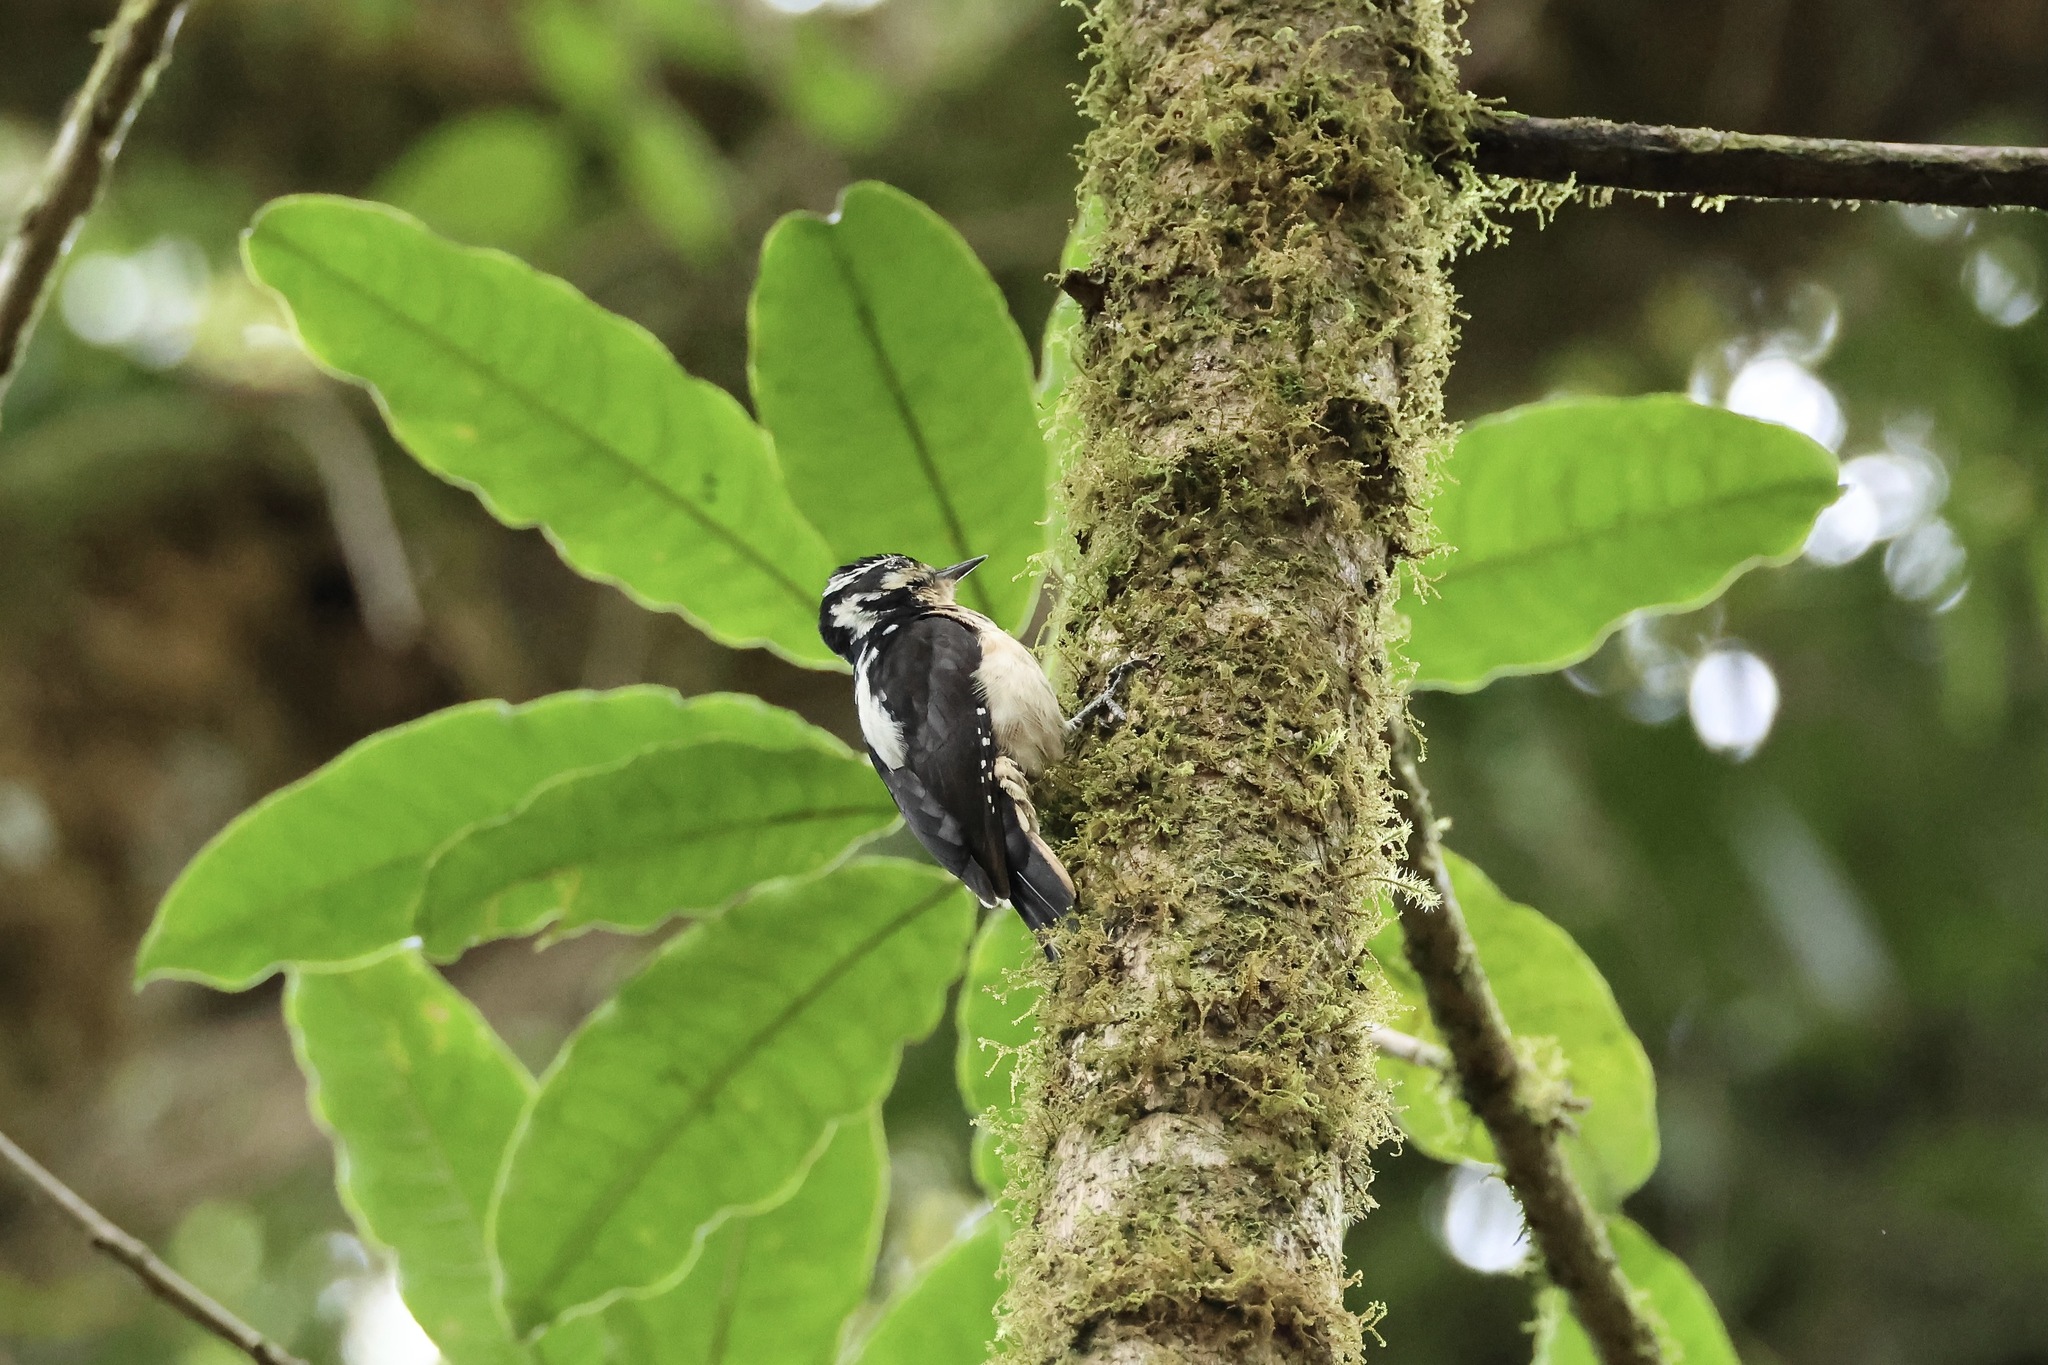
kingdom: Animalia
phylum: Chordata
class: Aves
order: Piciformes
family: Picidae
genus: Leuconotopicus
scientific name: Leuconotopicus villosus
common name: Hairy woodpecker
